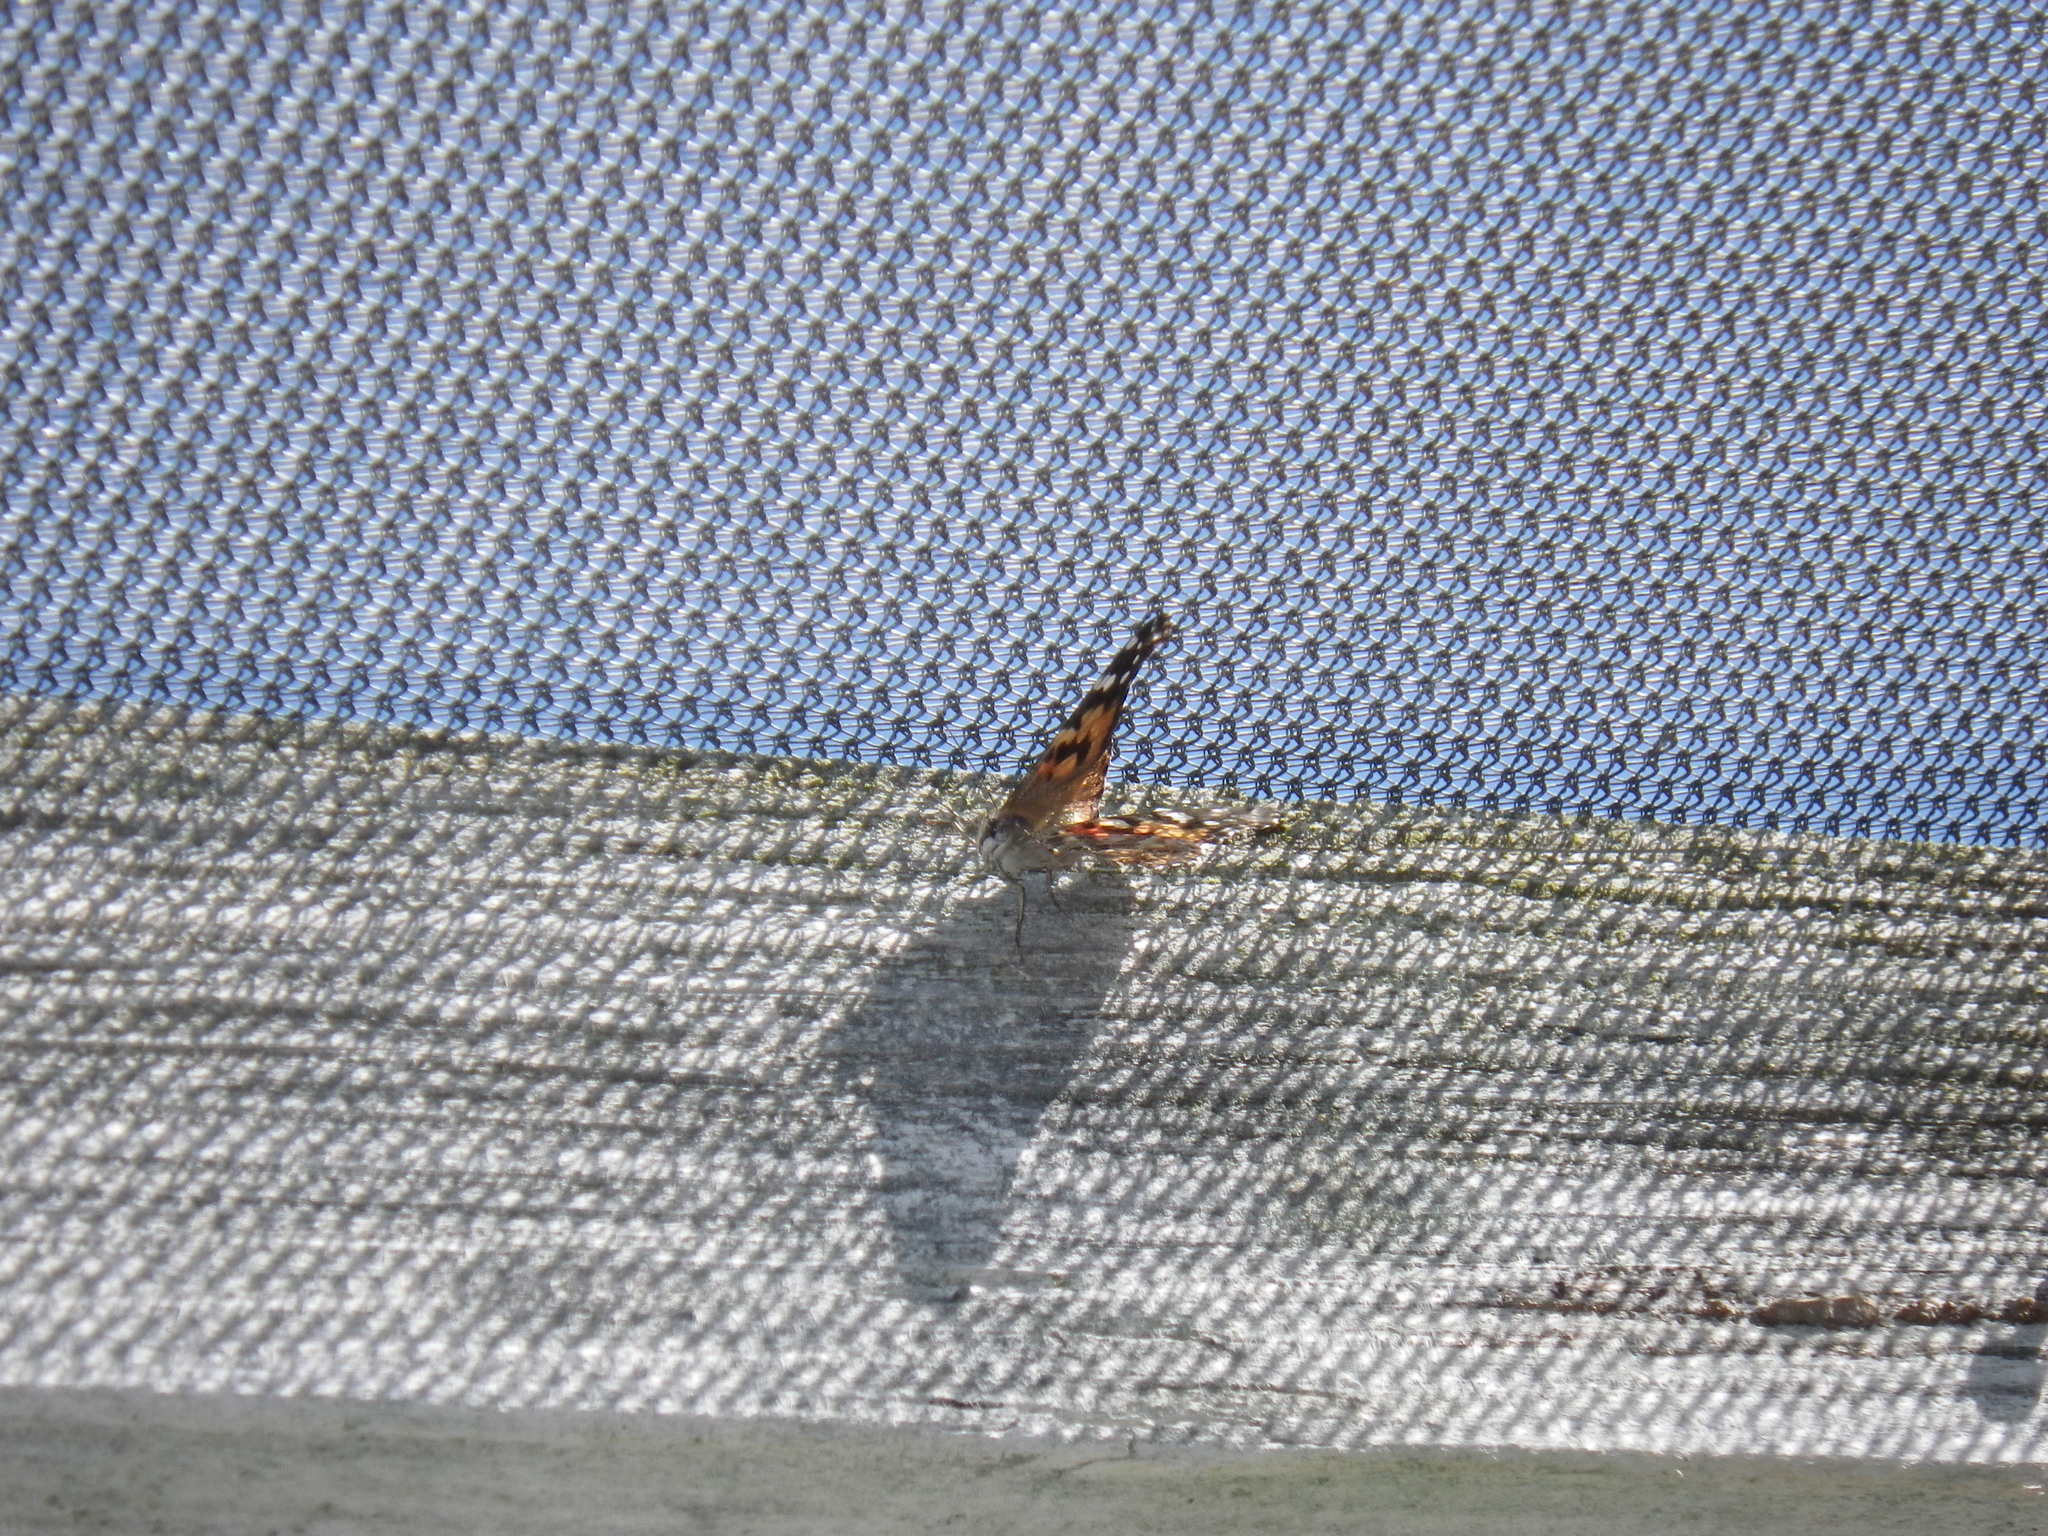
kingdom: Animalia
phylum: Arthropoda
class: Insecta
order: Lepidoptera
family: Nymphalidae
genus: Vanessa
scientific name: Vanessa cardui
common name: Painted lady
